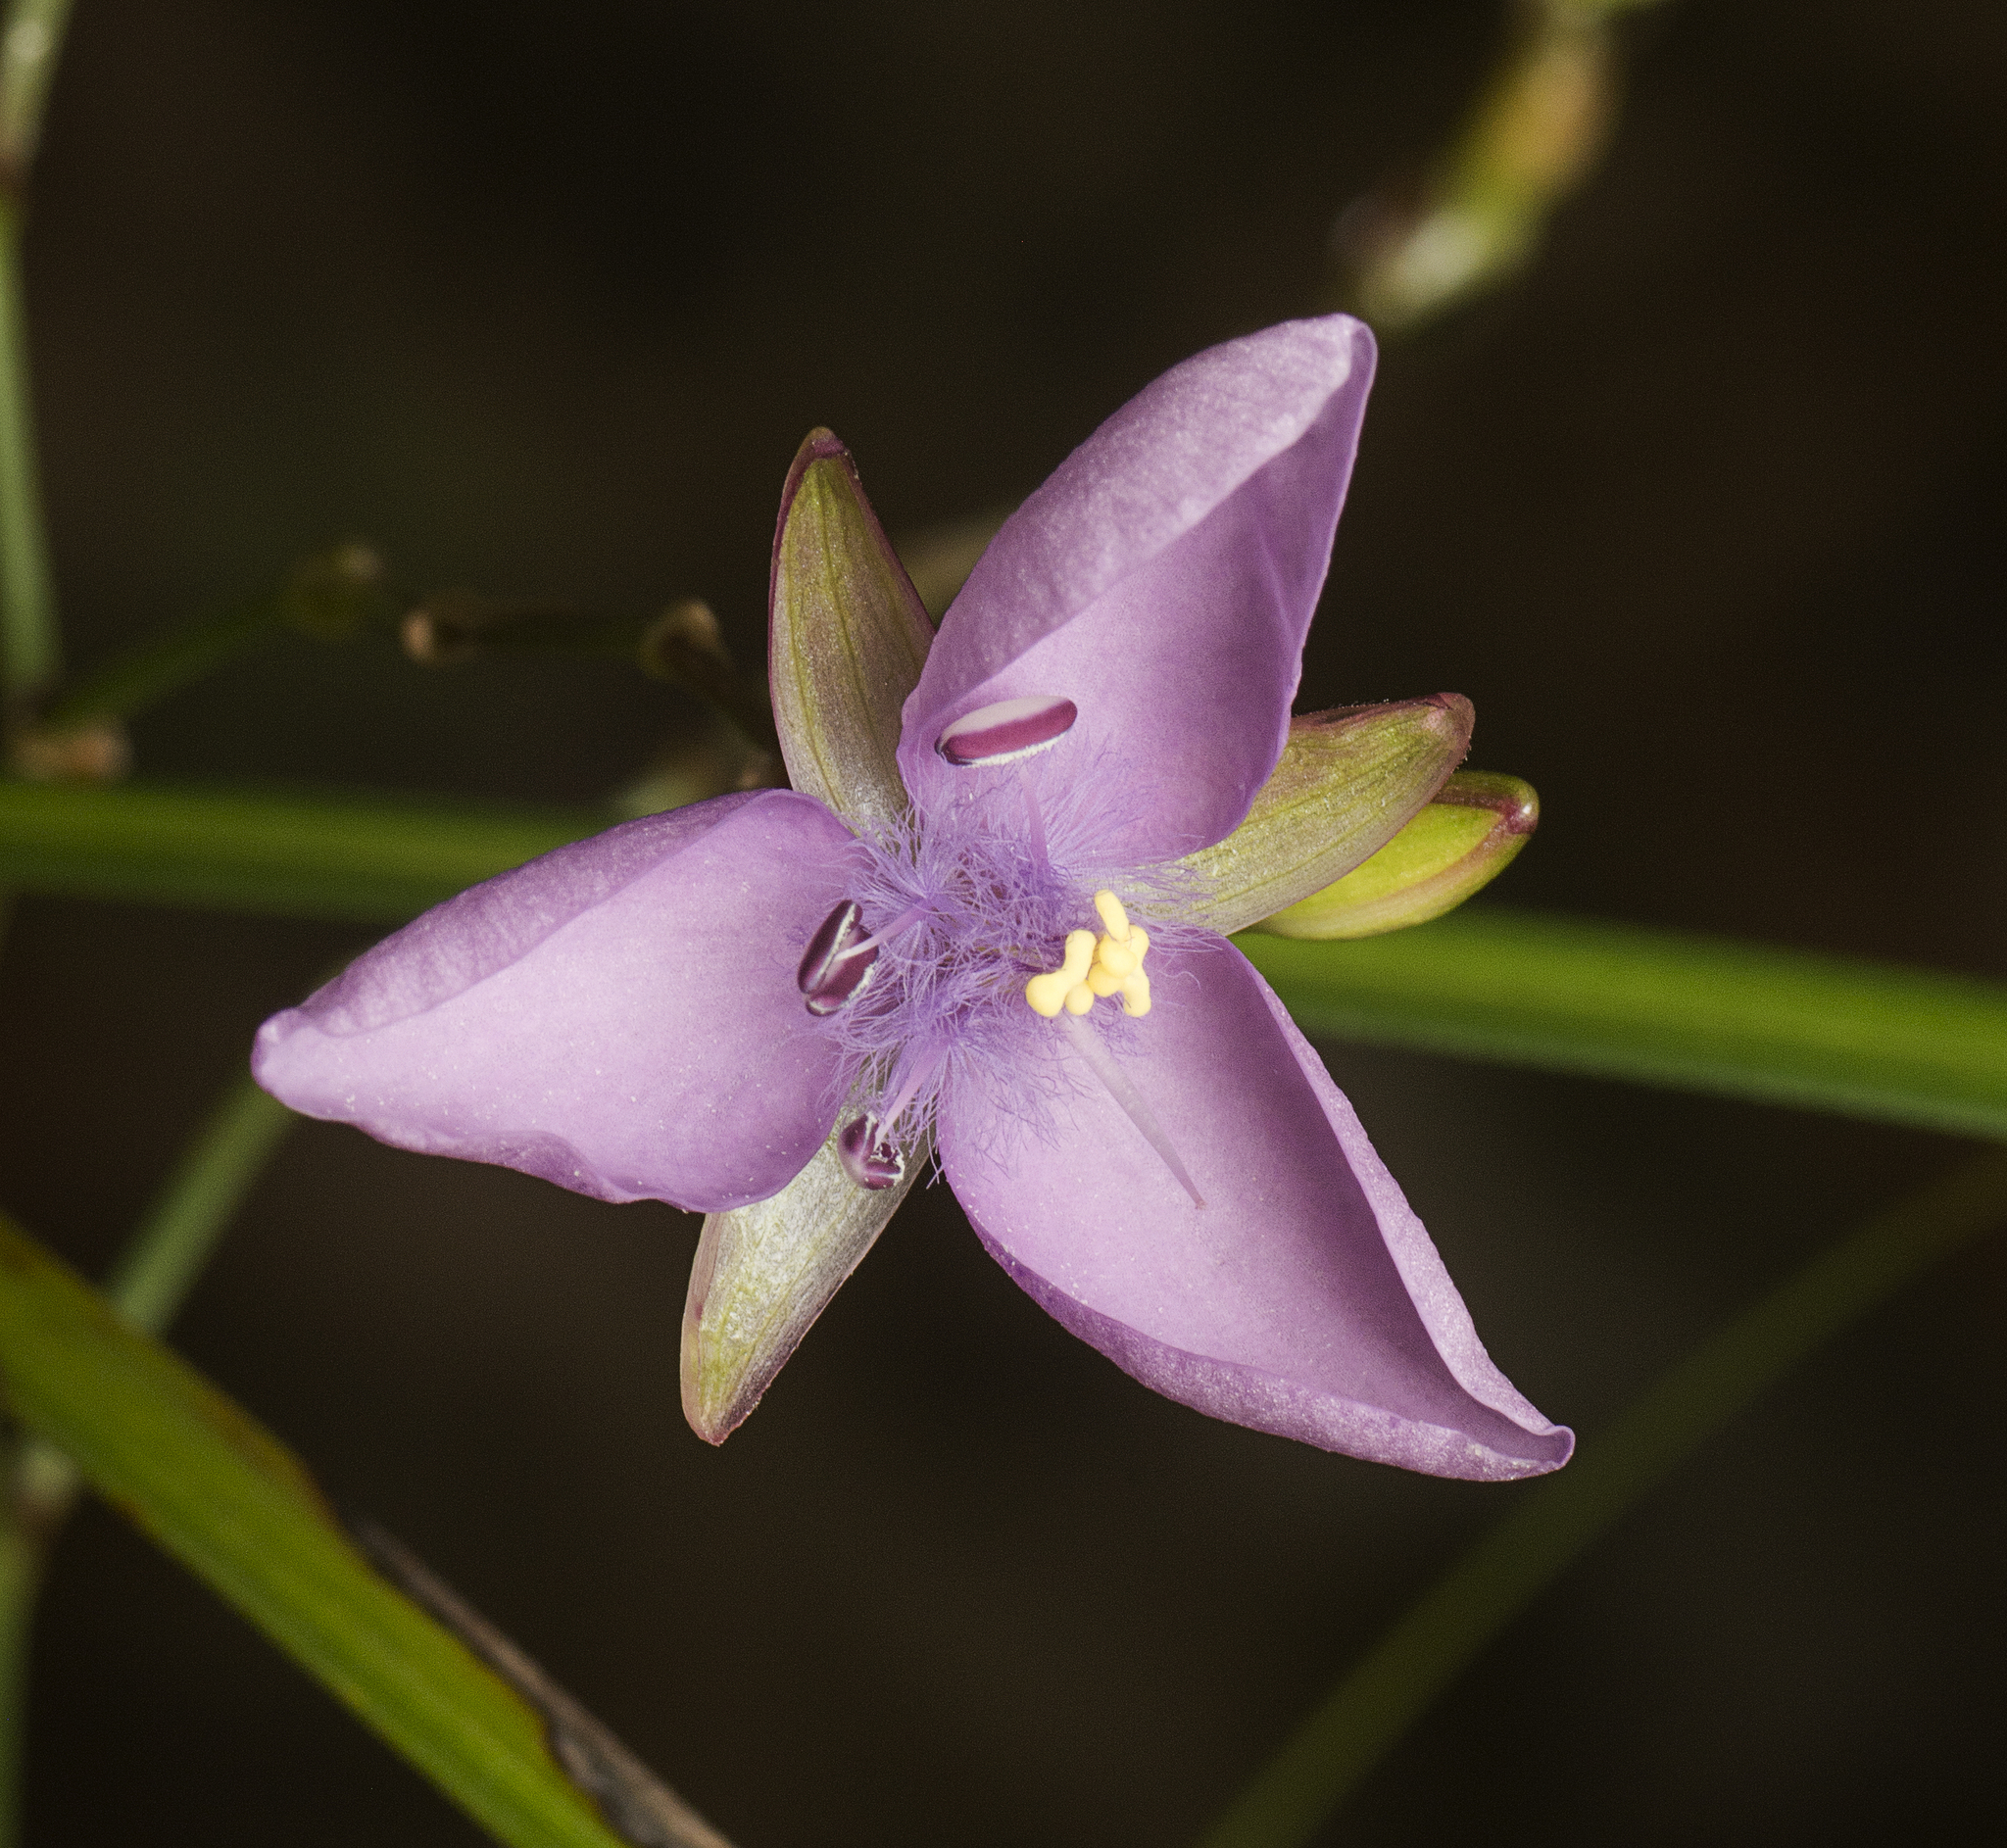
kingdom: Plantae
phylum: Tracheophyta
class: Liliopsida
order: Commelinales
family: Commelinaceae
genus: Murdannia
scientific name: Murdannia graminea
